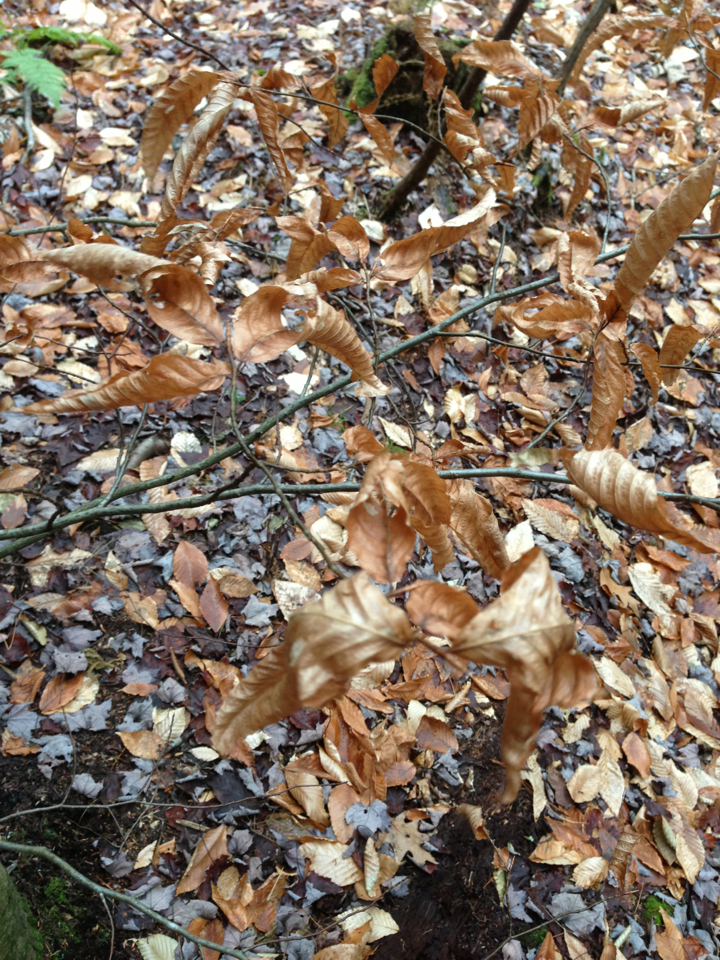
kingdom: Plantae
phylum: Tracheophyta
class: Magnoliopsida
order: Fagales
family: Fagaceae
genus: Fagus
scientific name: Fagus grandifolia
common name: American beech
